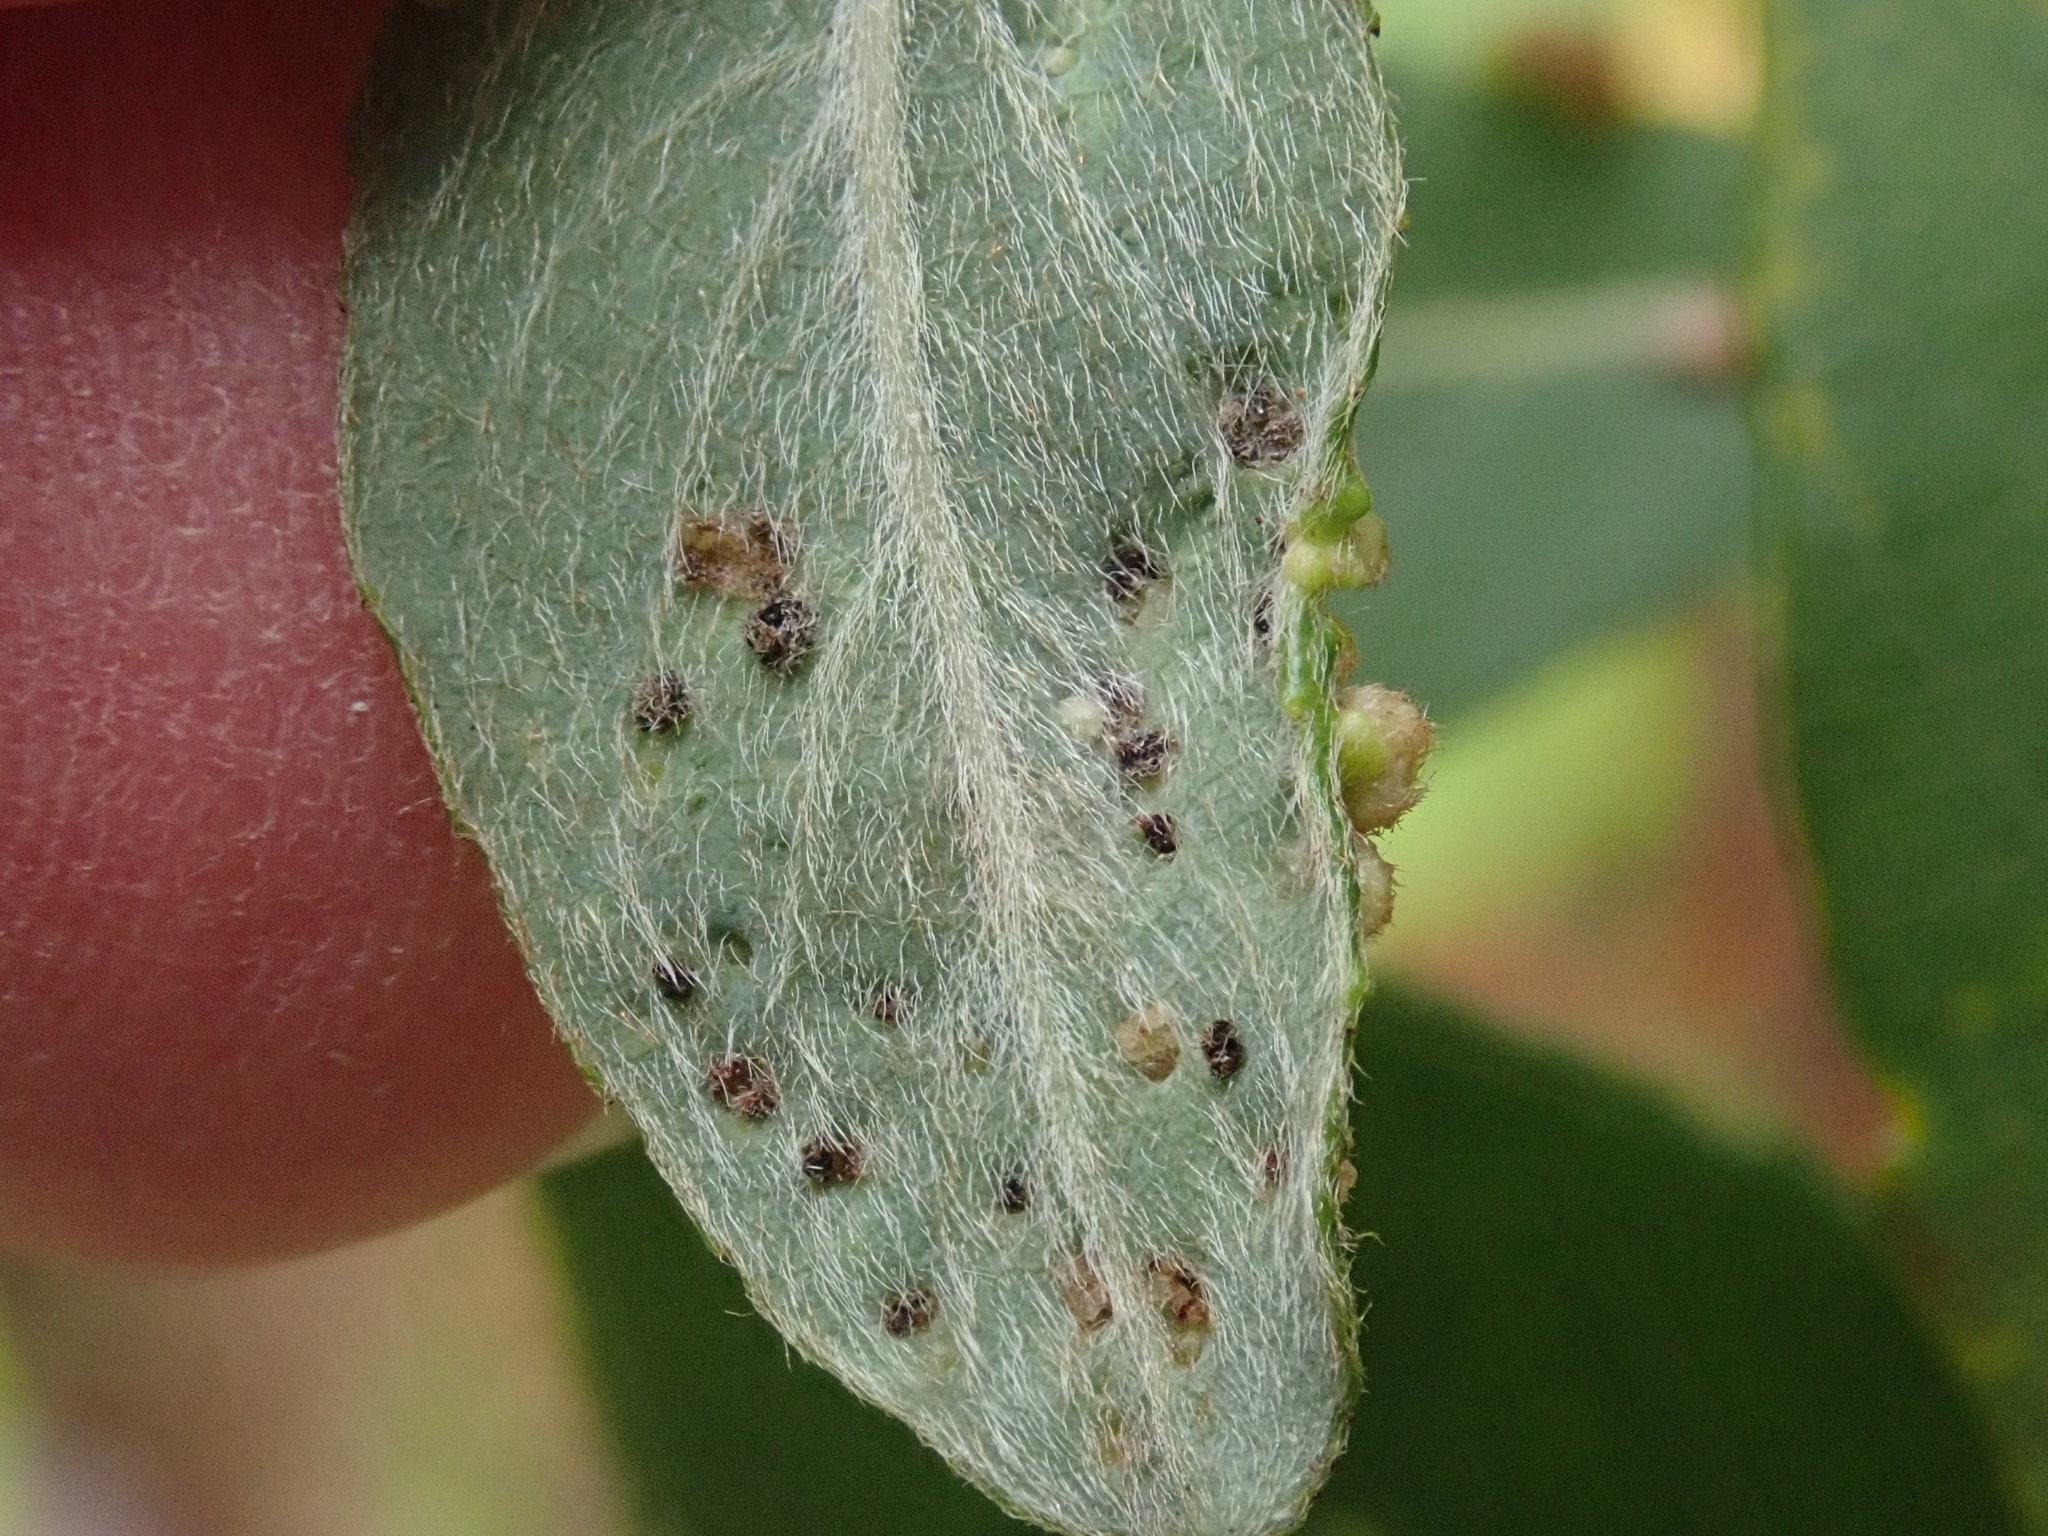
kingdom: Animalia
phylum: Arthropoda
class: Arachnida
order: Trombidiformes
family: Eriophyidae
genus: Aculus
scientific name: Aculus tetanothrix
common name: Willow bead gall mite
